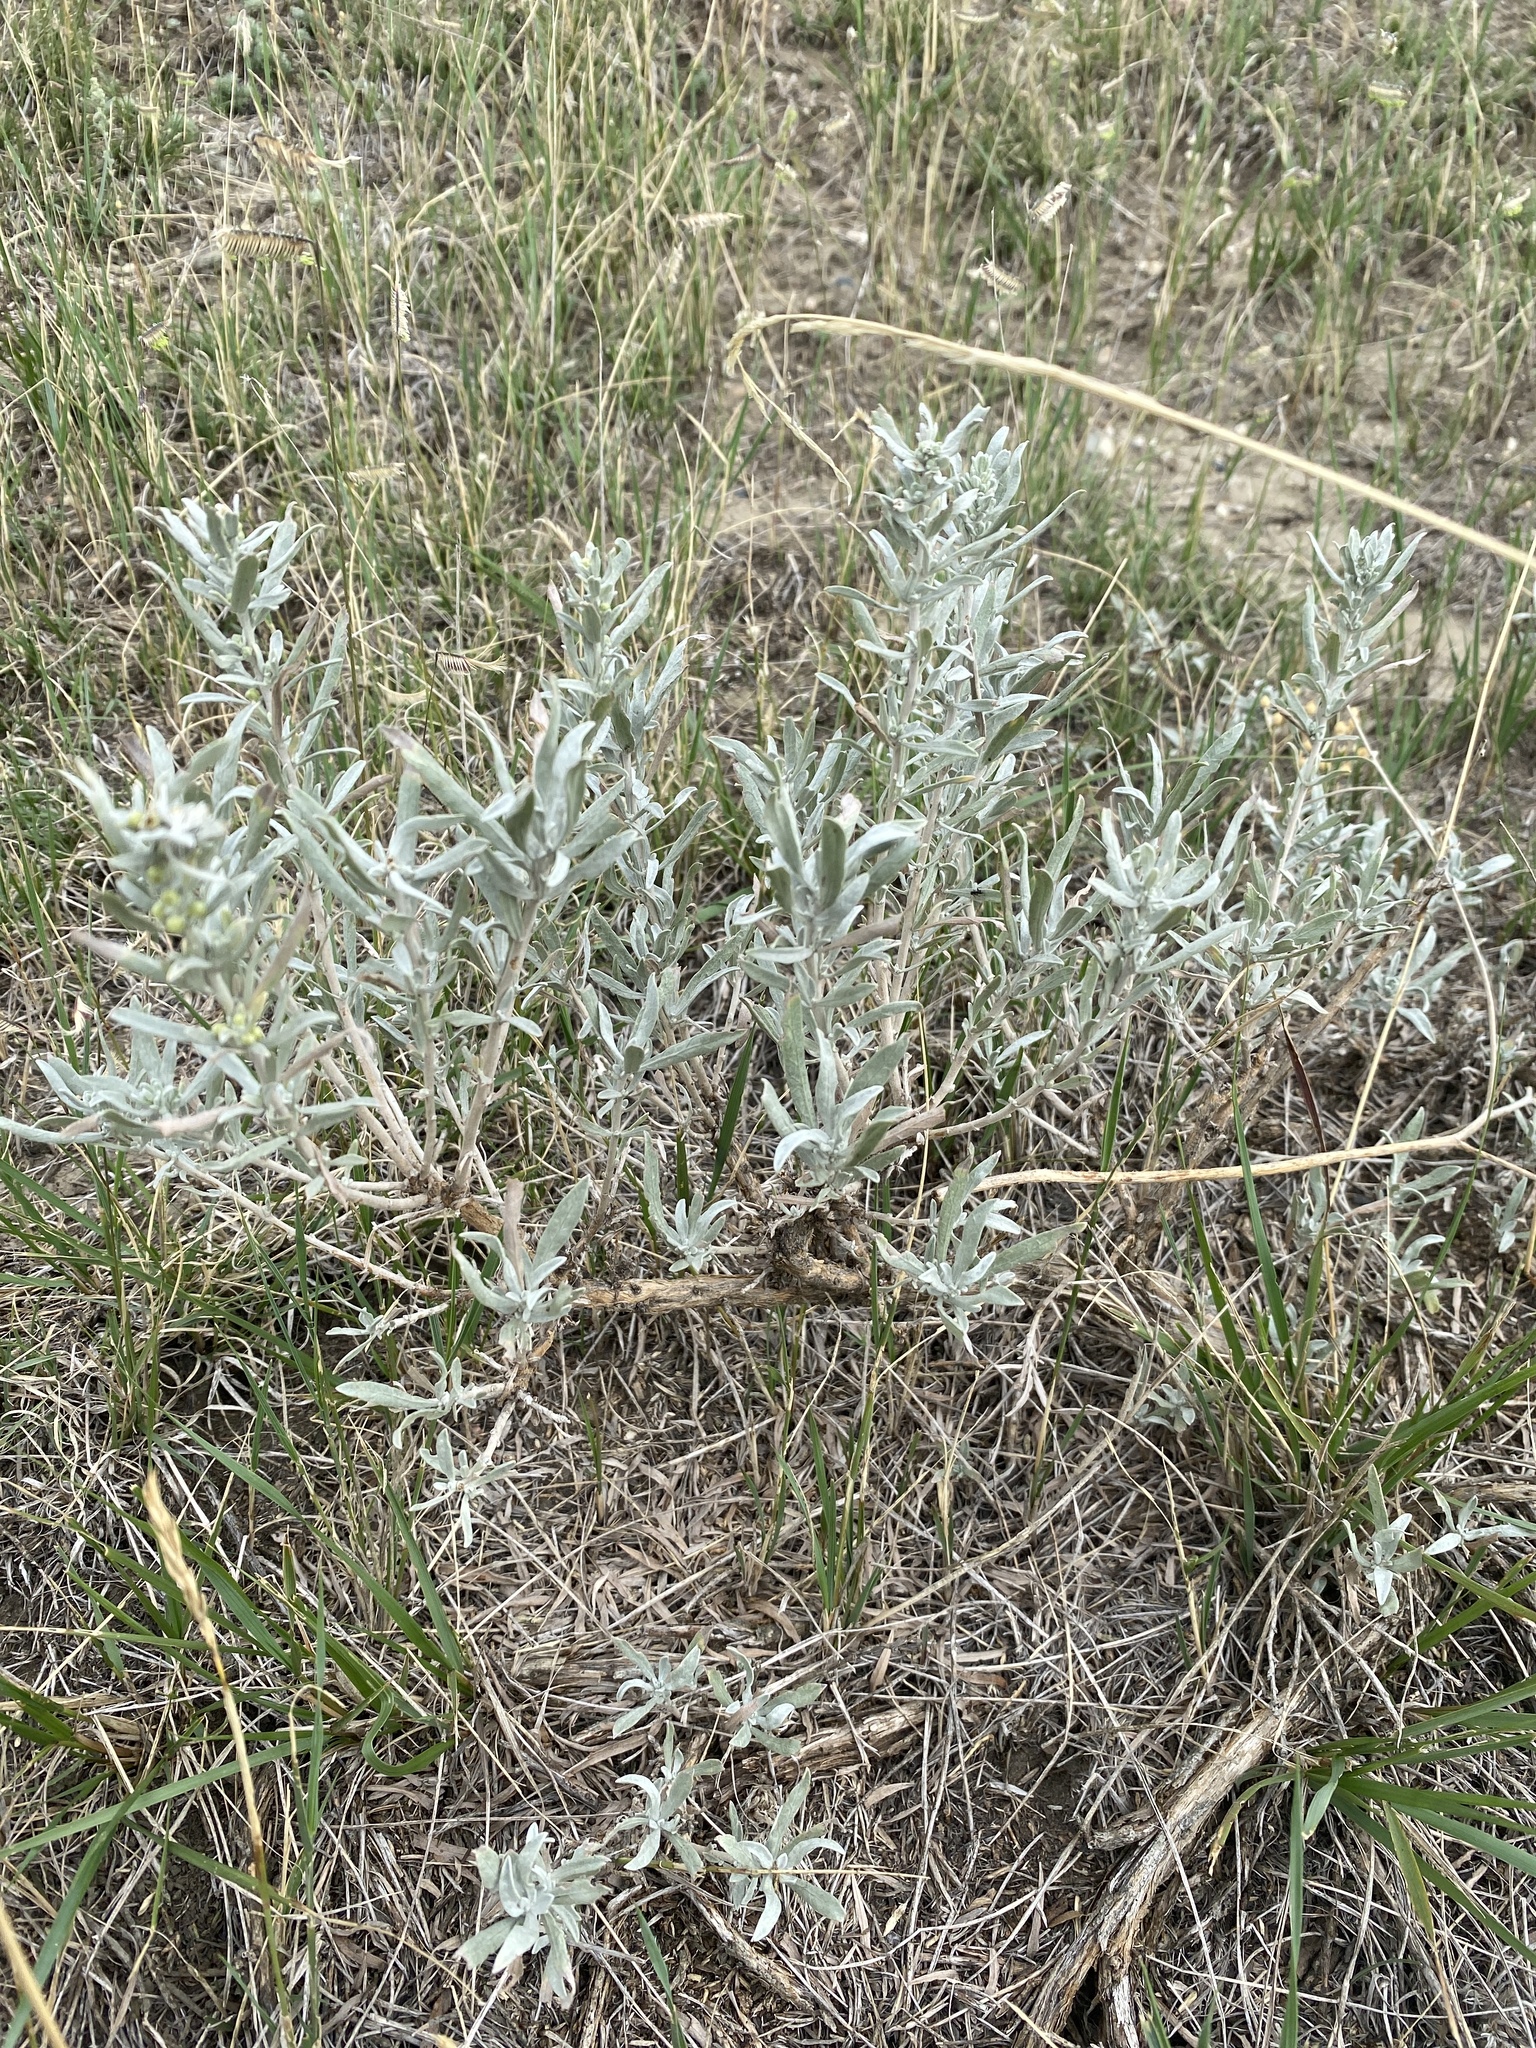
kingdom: Plantae
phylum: Tracheophyta
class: Magnoliopsida
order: Asterales
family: Asteraceae
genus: Artemisia
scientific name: Artemisia cana
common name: Silver sagebrush
